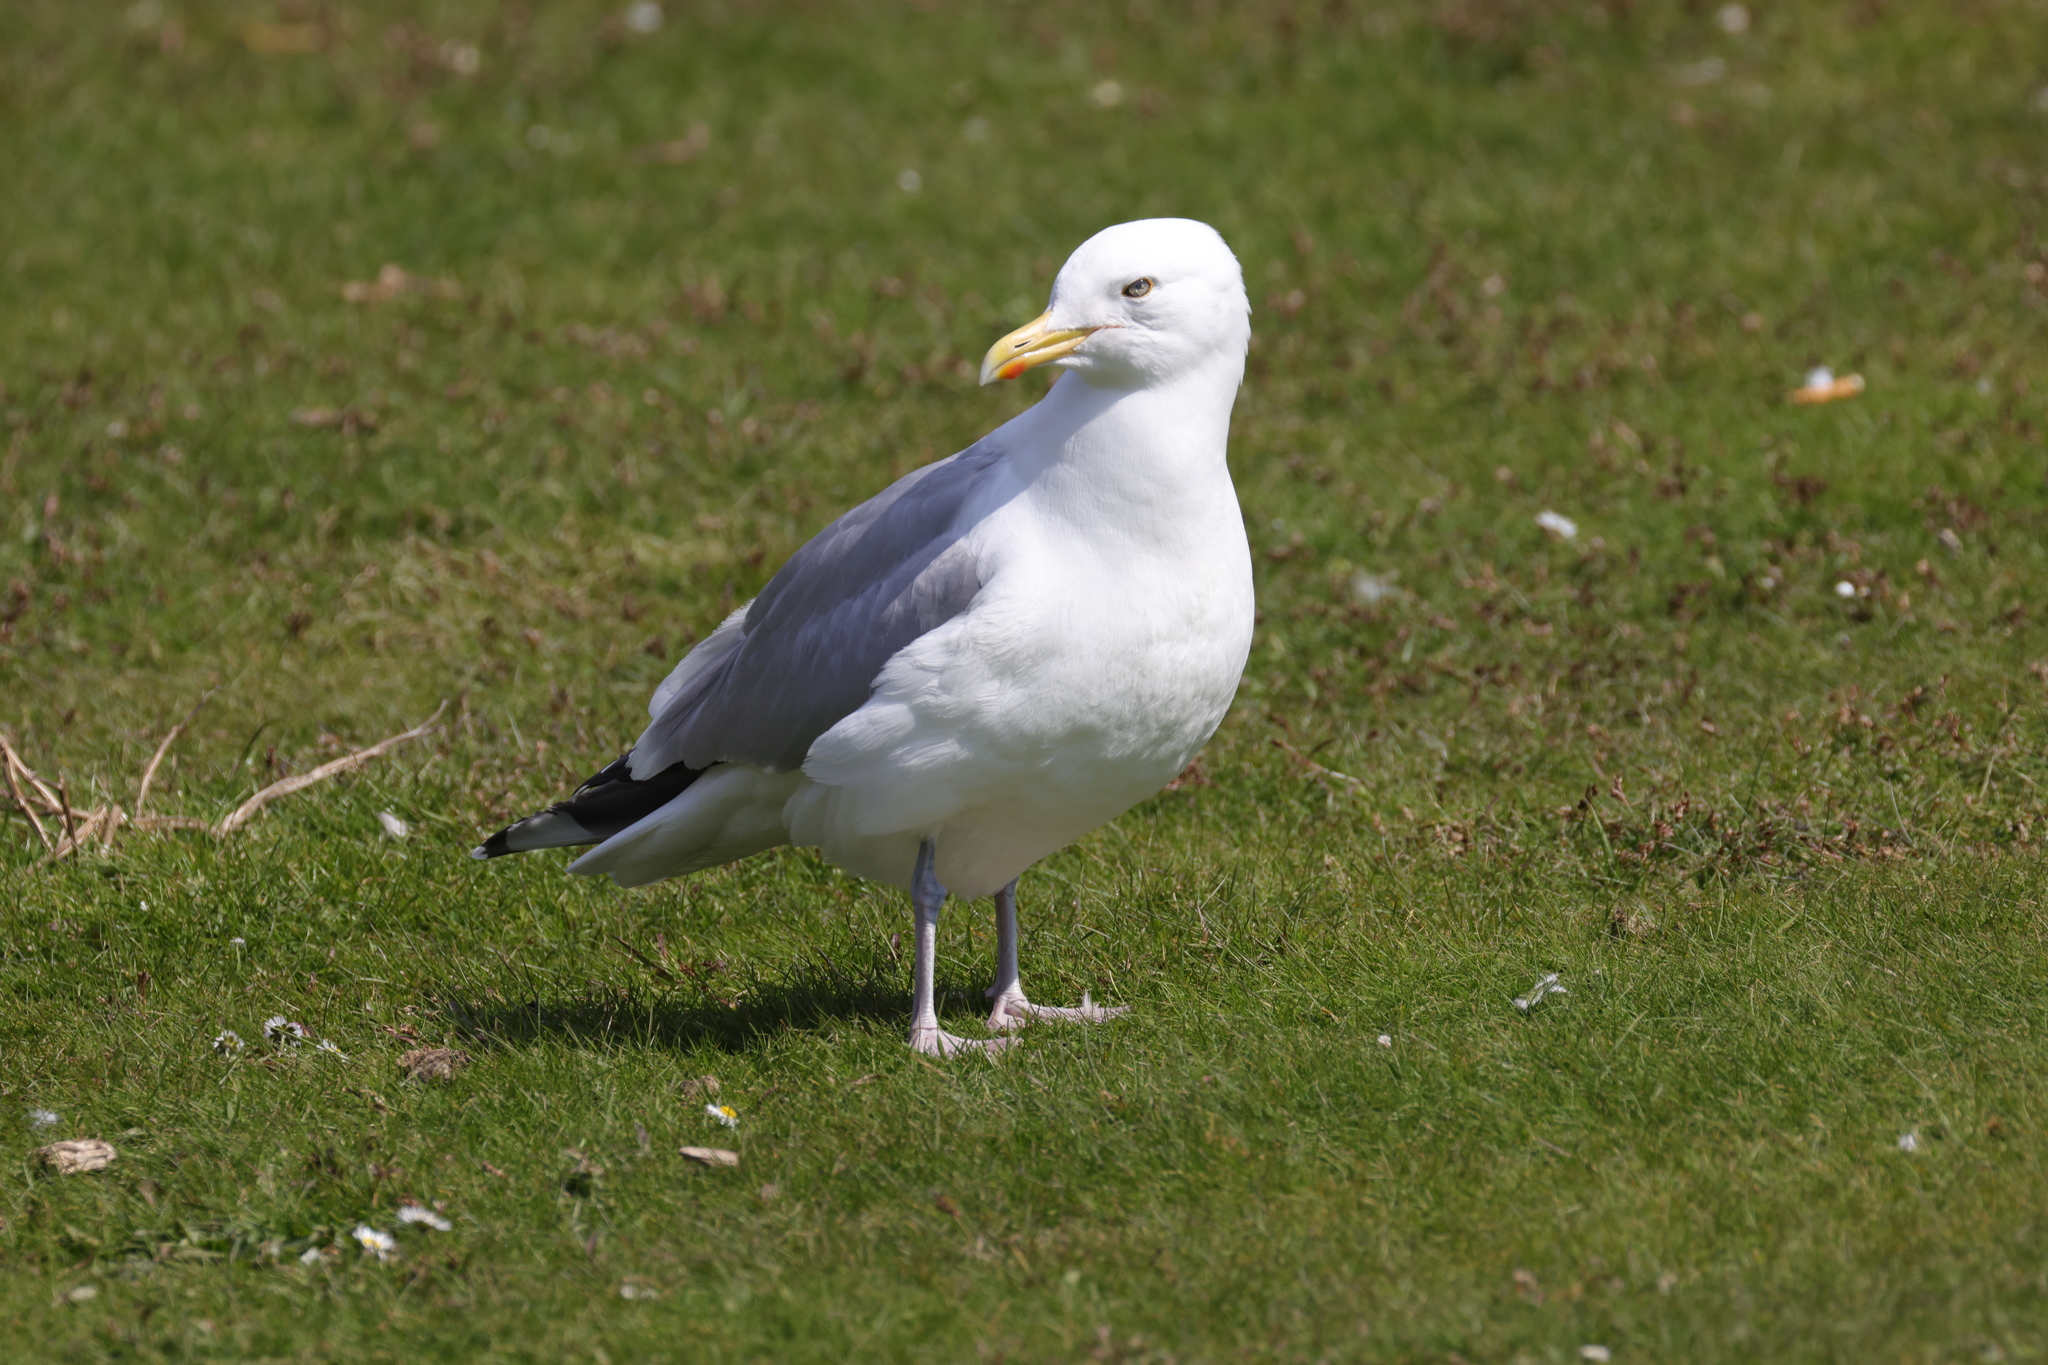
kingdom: Animalia
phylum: Chordata
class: Aves
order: Charadriiformes
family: Laridae
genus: Larus
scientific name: Larus argentatus
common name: Herring gull
